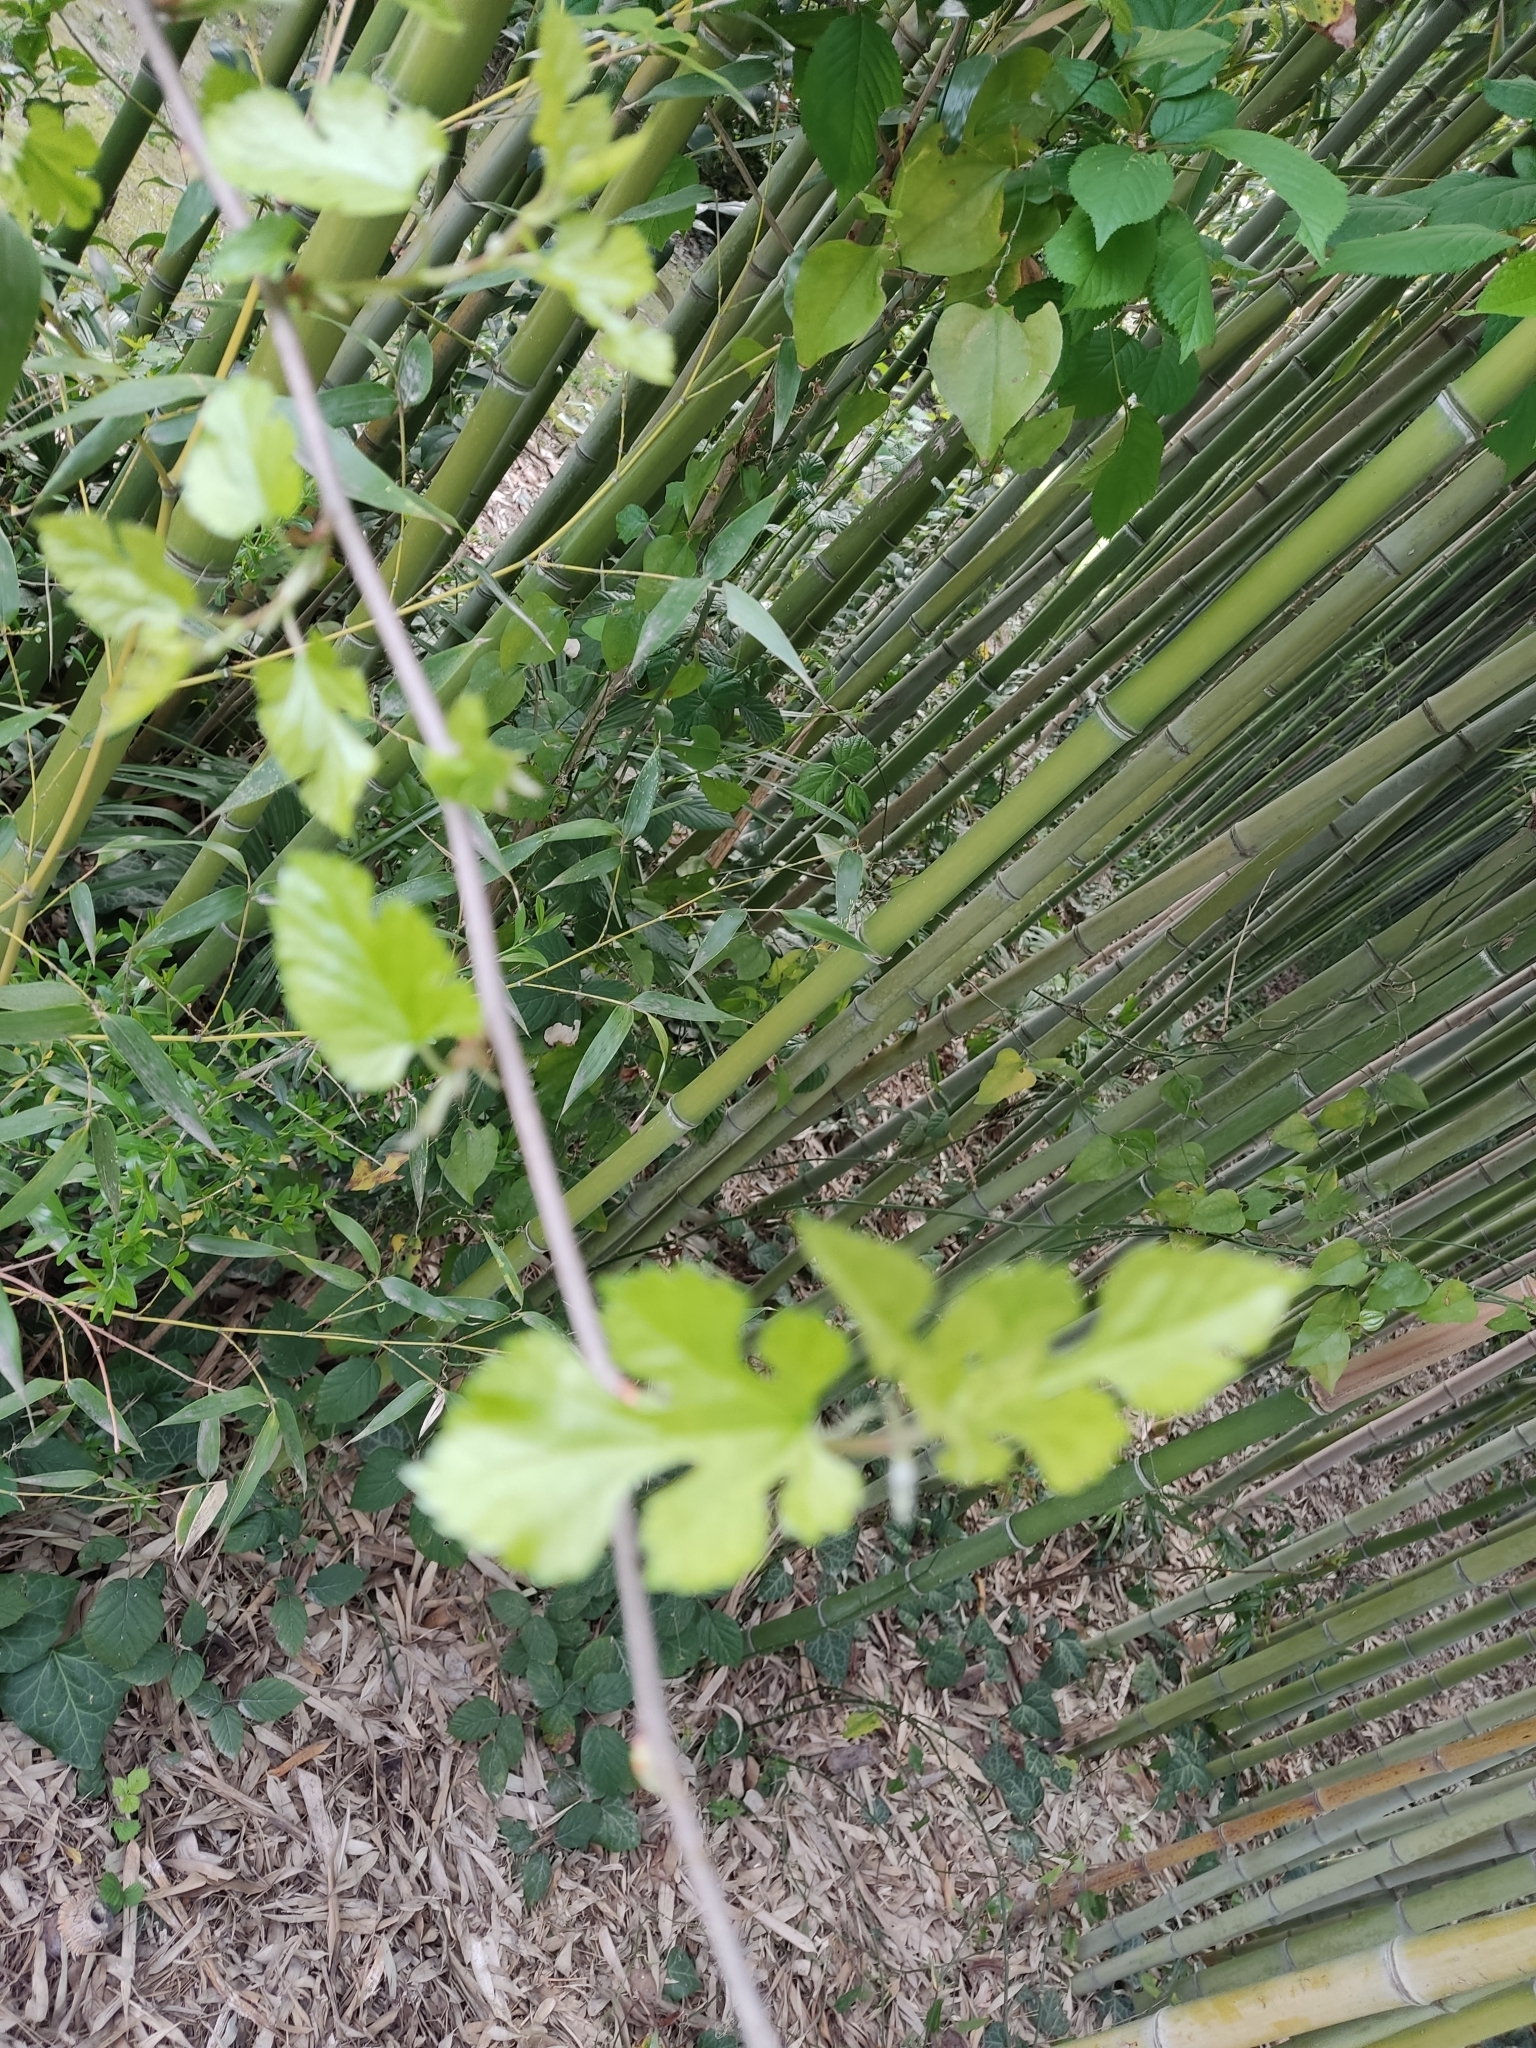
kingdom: Plantae
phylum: Tracheophyta
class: Magnoliopsida
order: Rosales
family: Moraceae
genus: Morus
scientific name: Morus alba
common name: White mulberry
